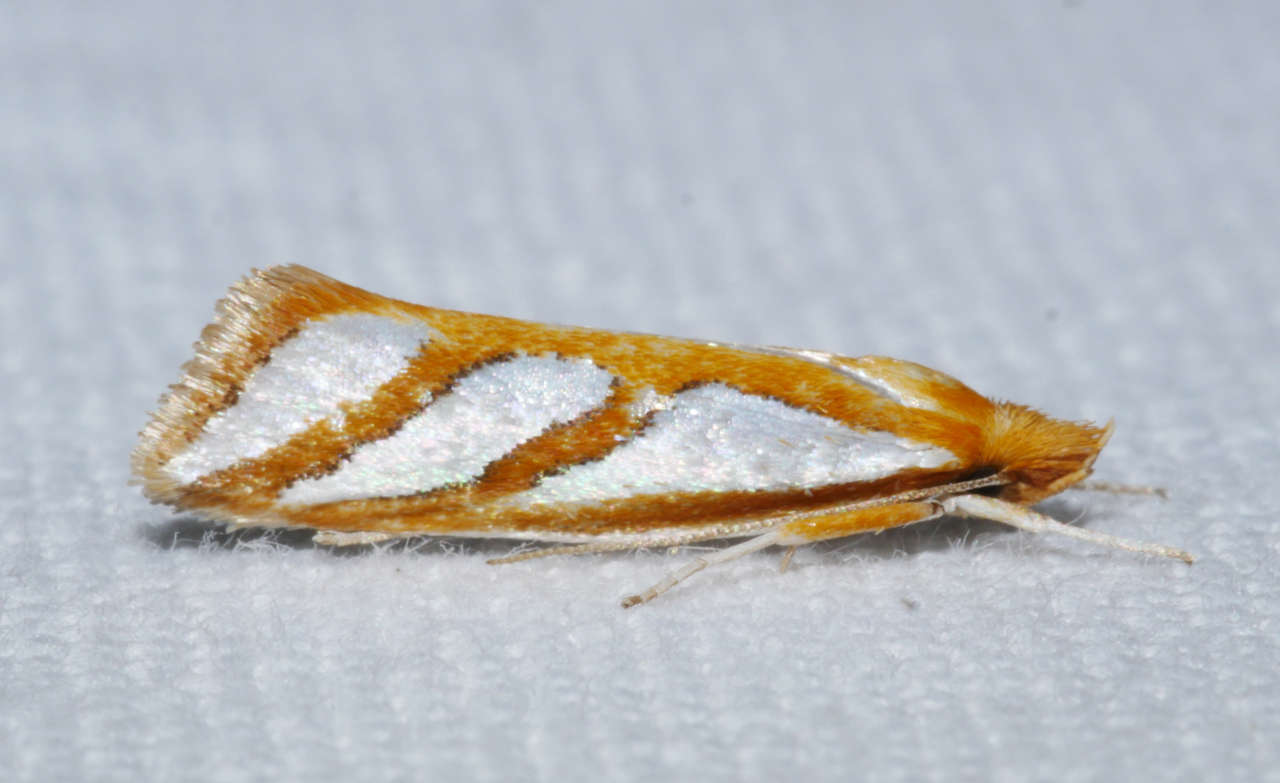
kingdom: Animalia
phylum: Arthropoda
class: Insecta
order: Lepidoptera
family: Depressariidae
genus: Thudaca
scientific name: Thudaca obliquella
